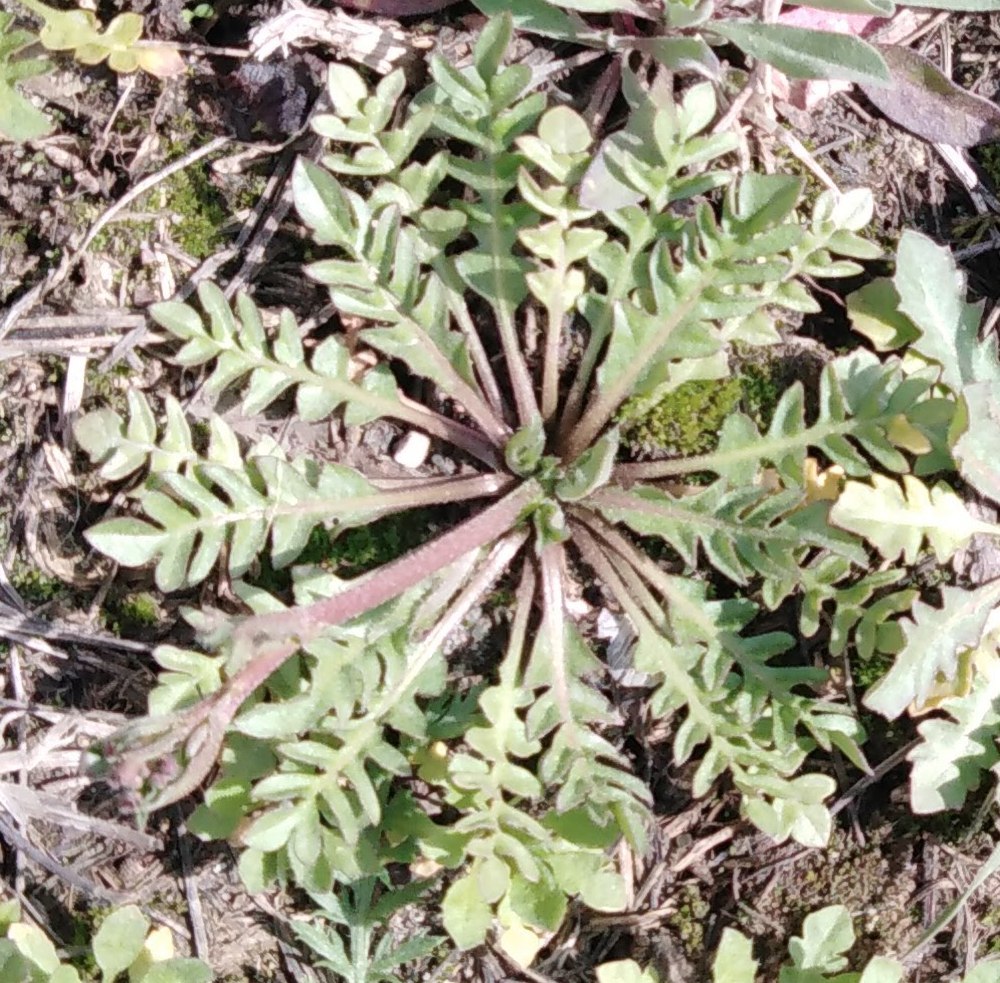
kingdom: Plantae
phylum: Tracheophyta
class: Magnoliopsida
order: Brassicales
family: Brassicaceae
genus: Capsella
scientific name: Capsella bursa-pastoris
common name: Shepherd's purse
